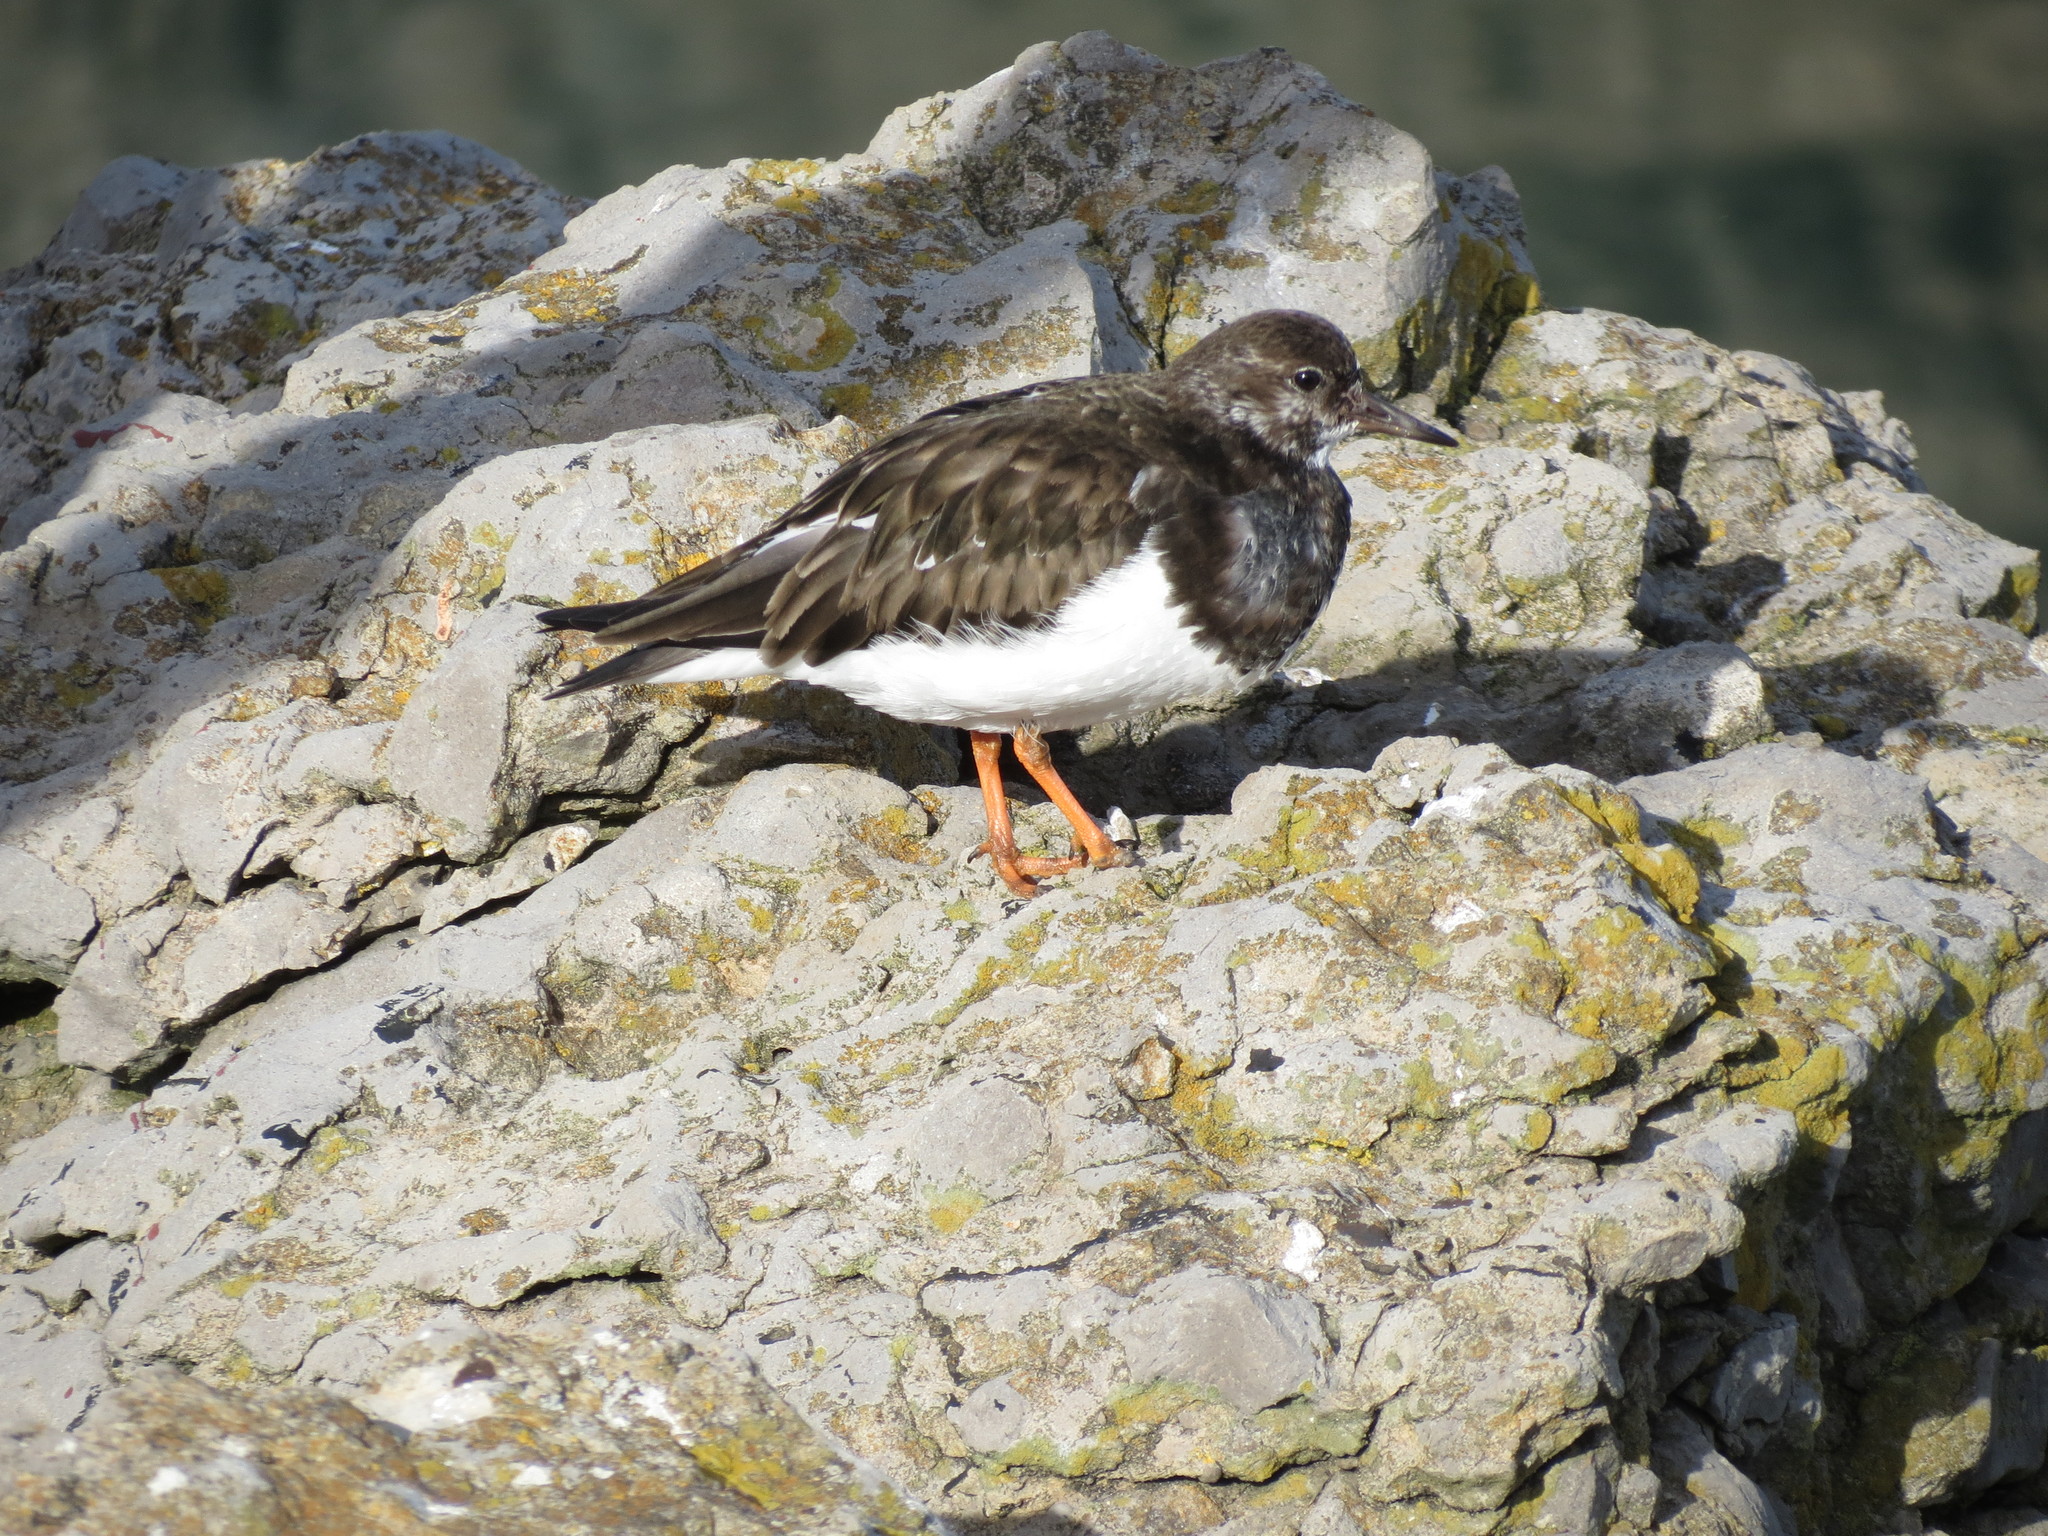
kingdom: Animalia
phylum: Chordata
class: Aves
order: Charadriiformes
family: Scolopacidae
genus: Arenaria
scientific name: Arenaria interpres
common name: Ruddy turnstone
